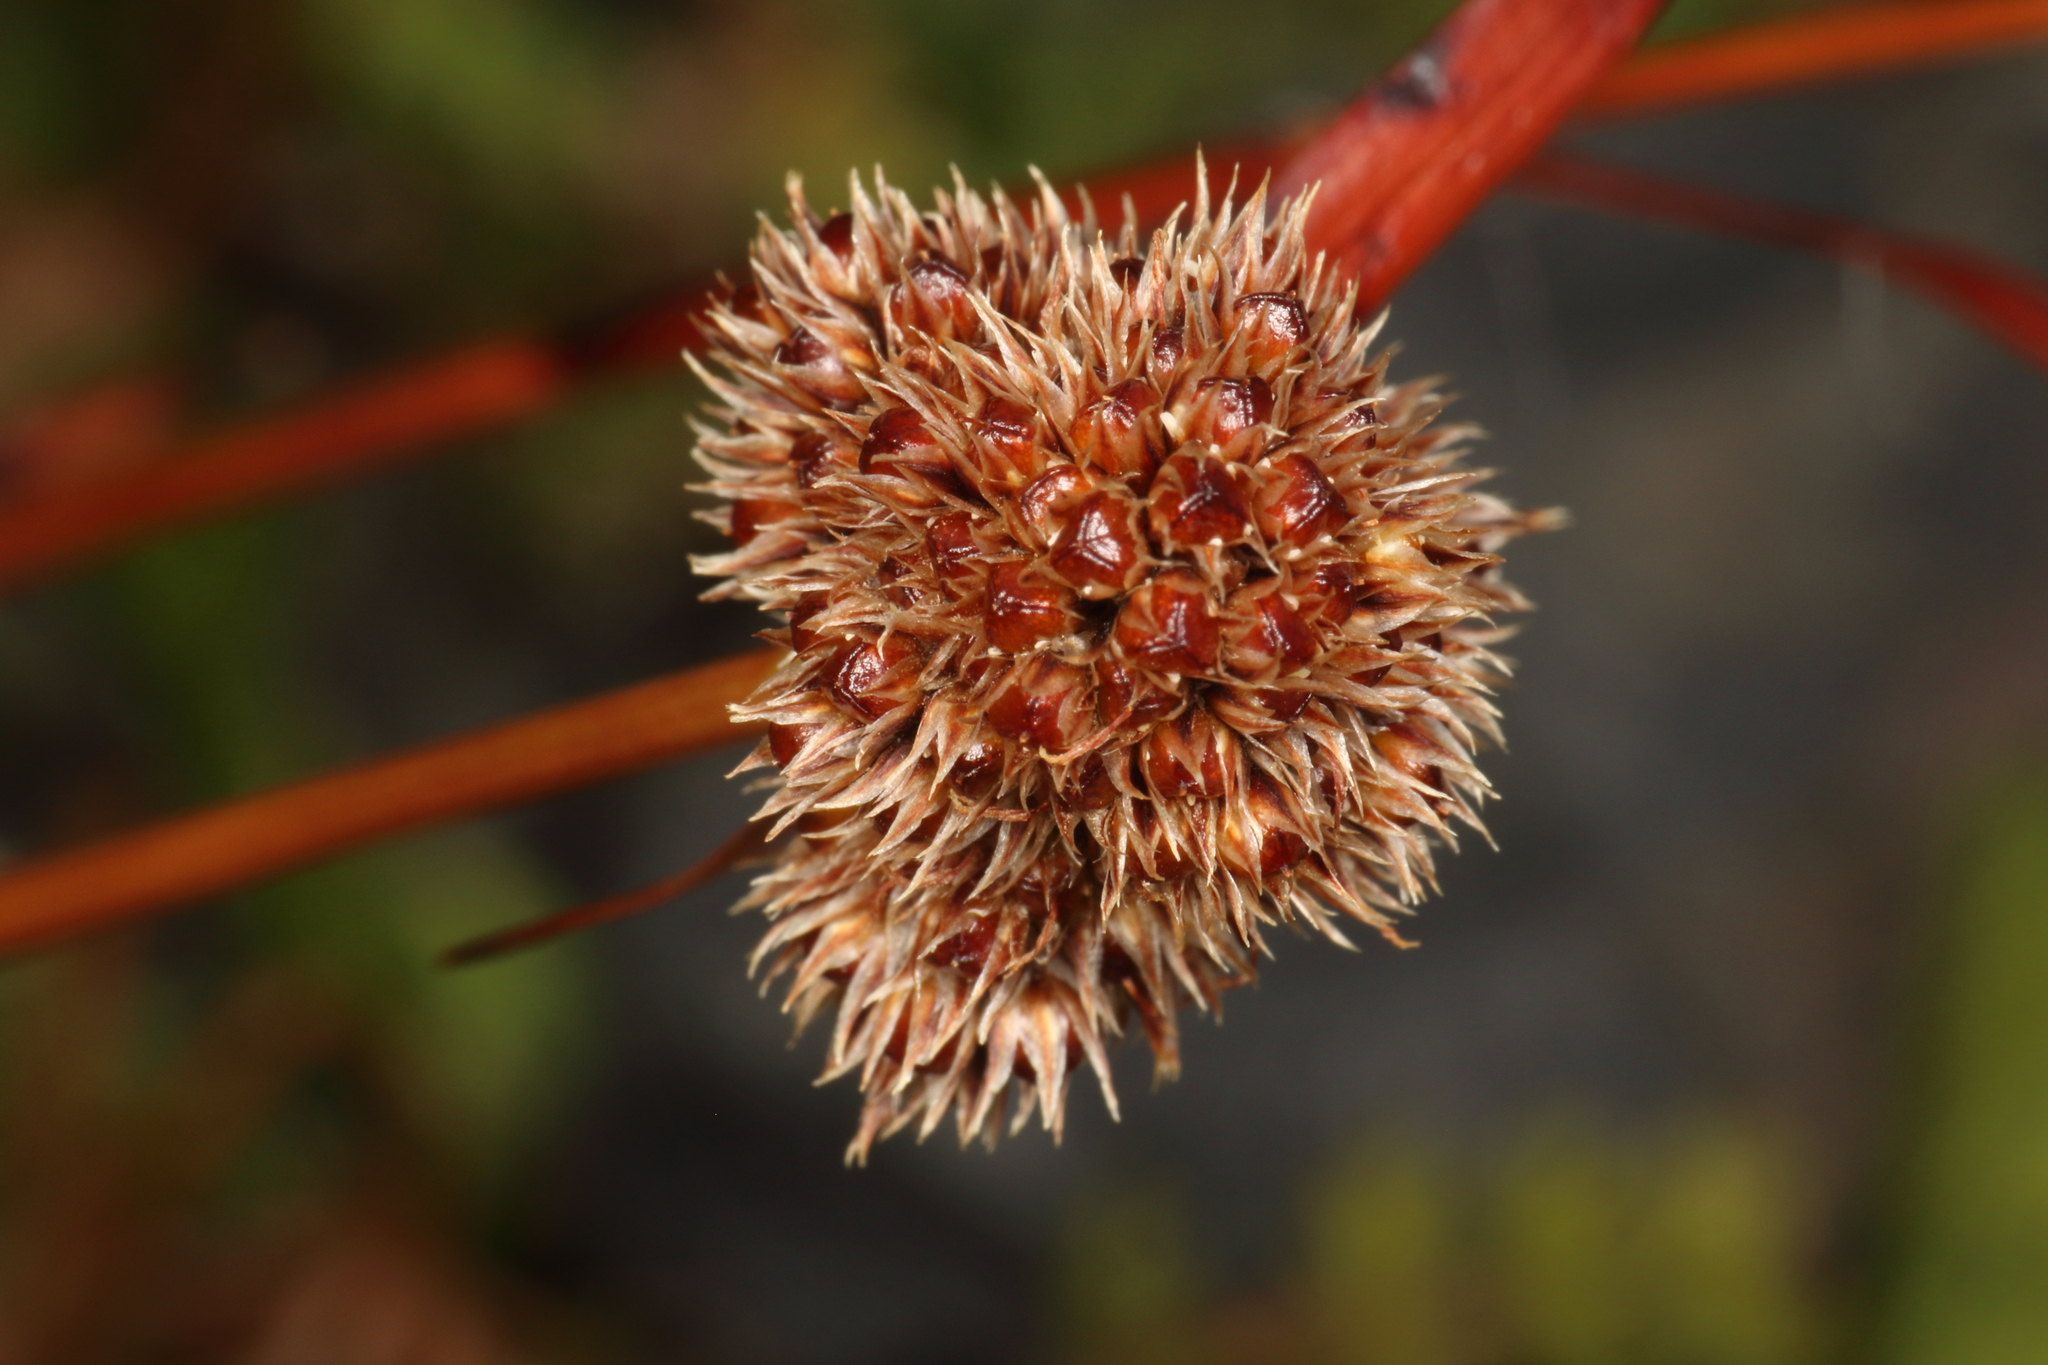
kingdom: Plantae
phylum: Tracheophyta
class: Liliopsida
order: Poales
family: Juncaceae
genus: Luzula
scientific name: Luzula rufa
